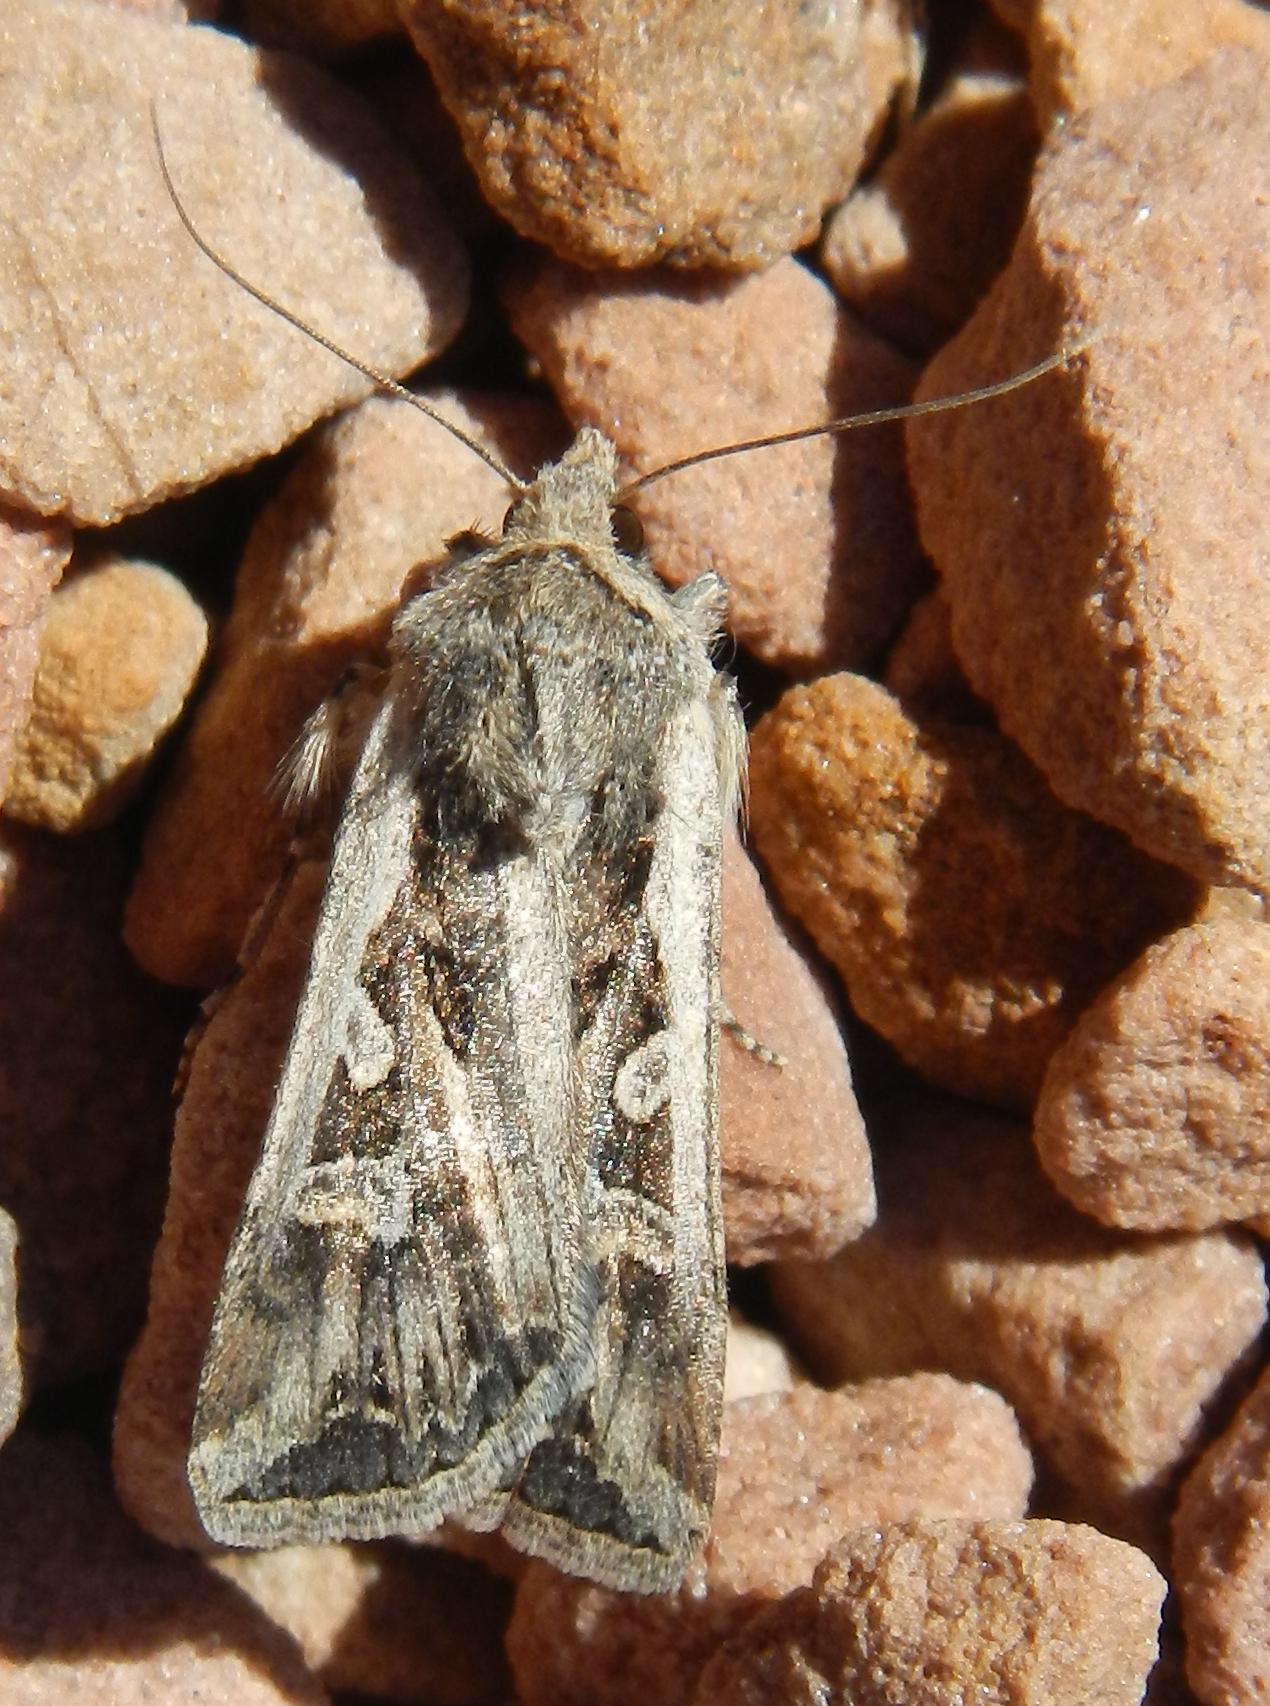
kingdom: Animalia
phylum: Arthropoda
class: Insecta
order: Lepidoptera
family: Noctuidae
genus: Euxoa
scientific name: Euxoa auxiliaris
